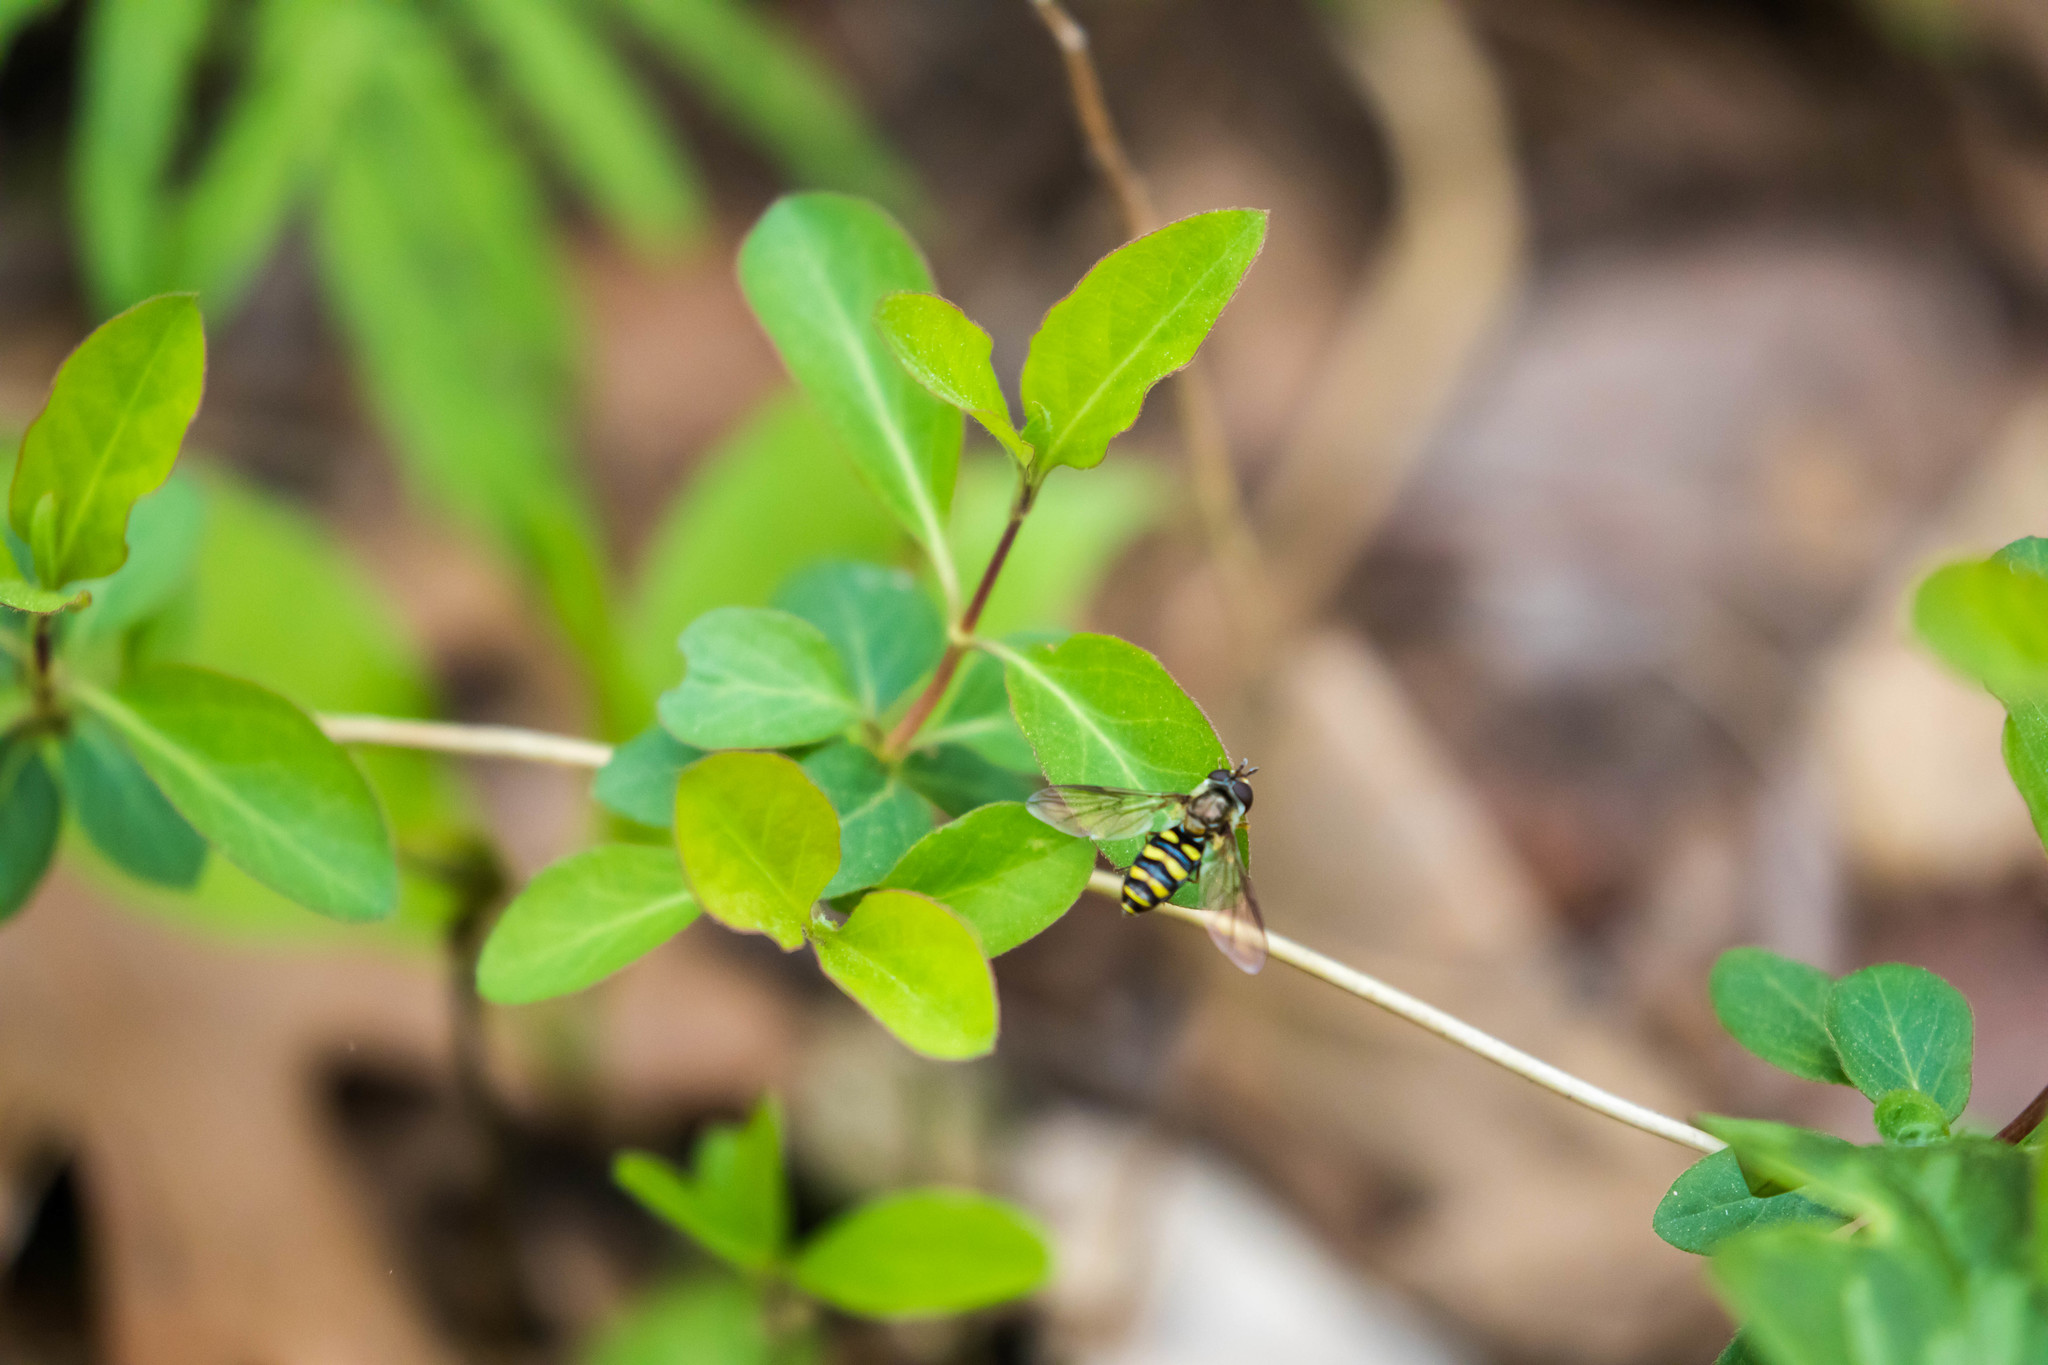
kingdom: Animalia
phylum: Arthropoda
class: Insecta
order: Diptera
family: Syrphidae
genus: Eupeodes
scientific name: Eupeodes
